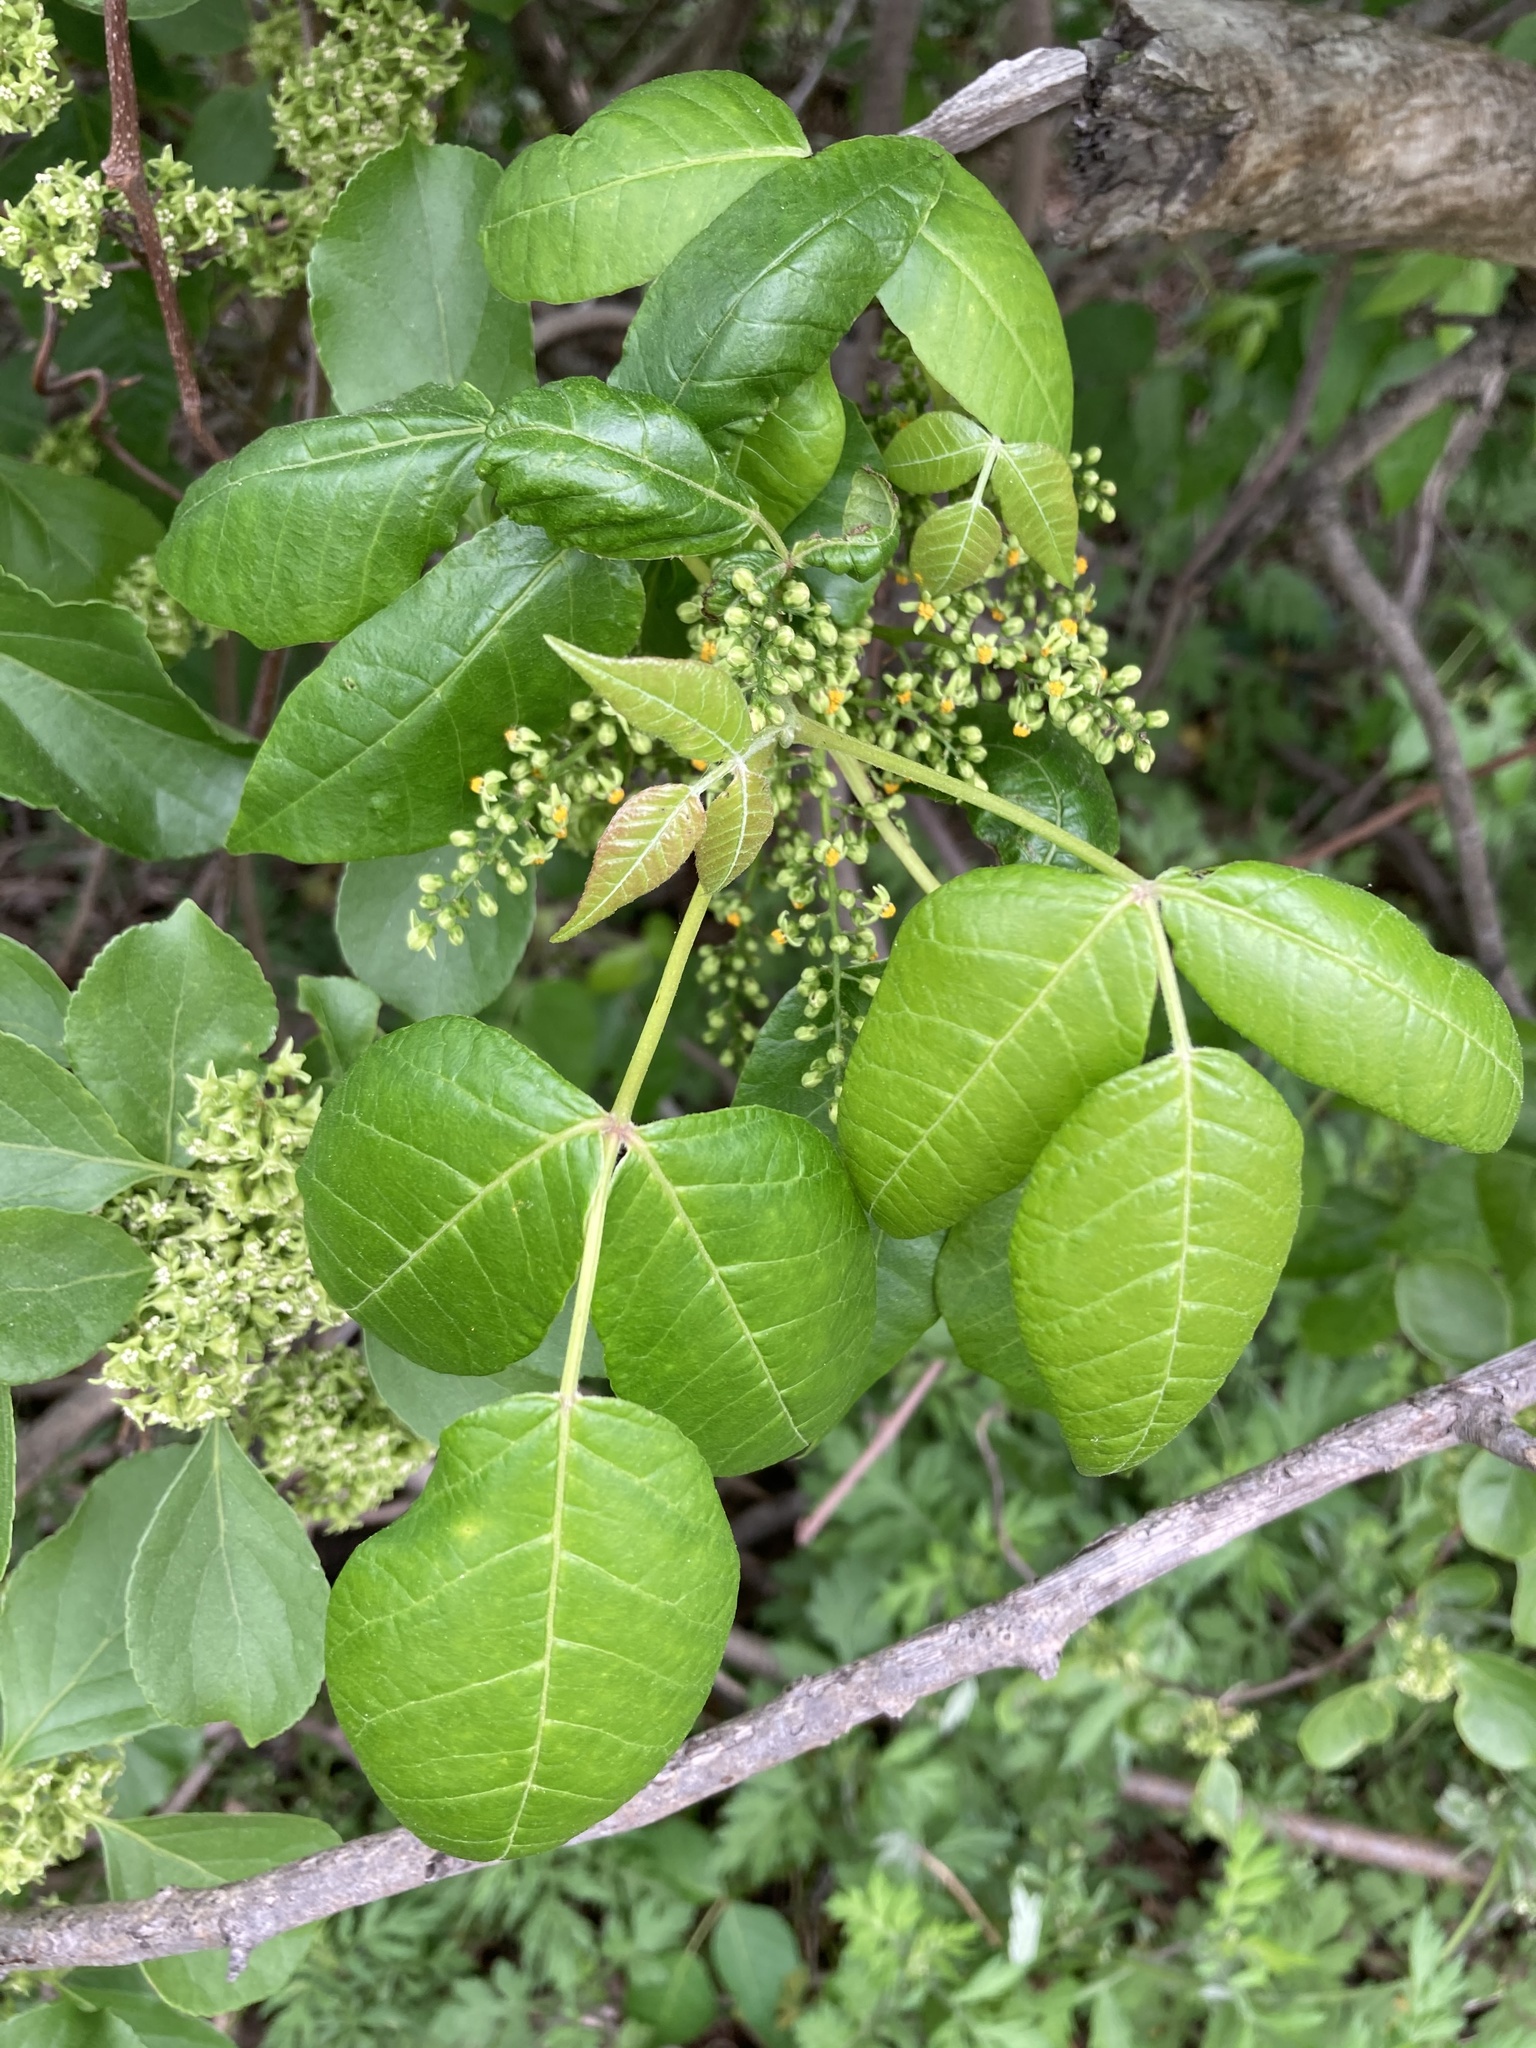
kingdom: Plantae
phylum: Tracheophyta
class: Magnoliopsida
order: Sapindales
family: Anacardiaceae
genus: Toxicodendron
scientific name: Toxicodendron radicans
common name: Poison ivy
